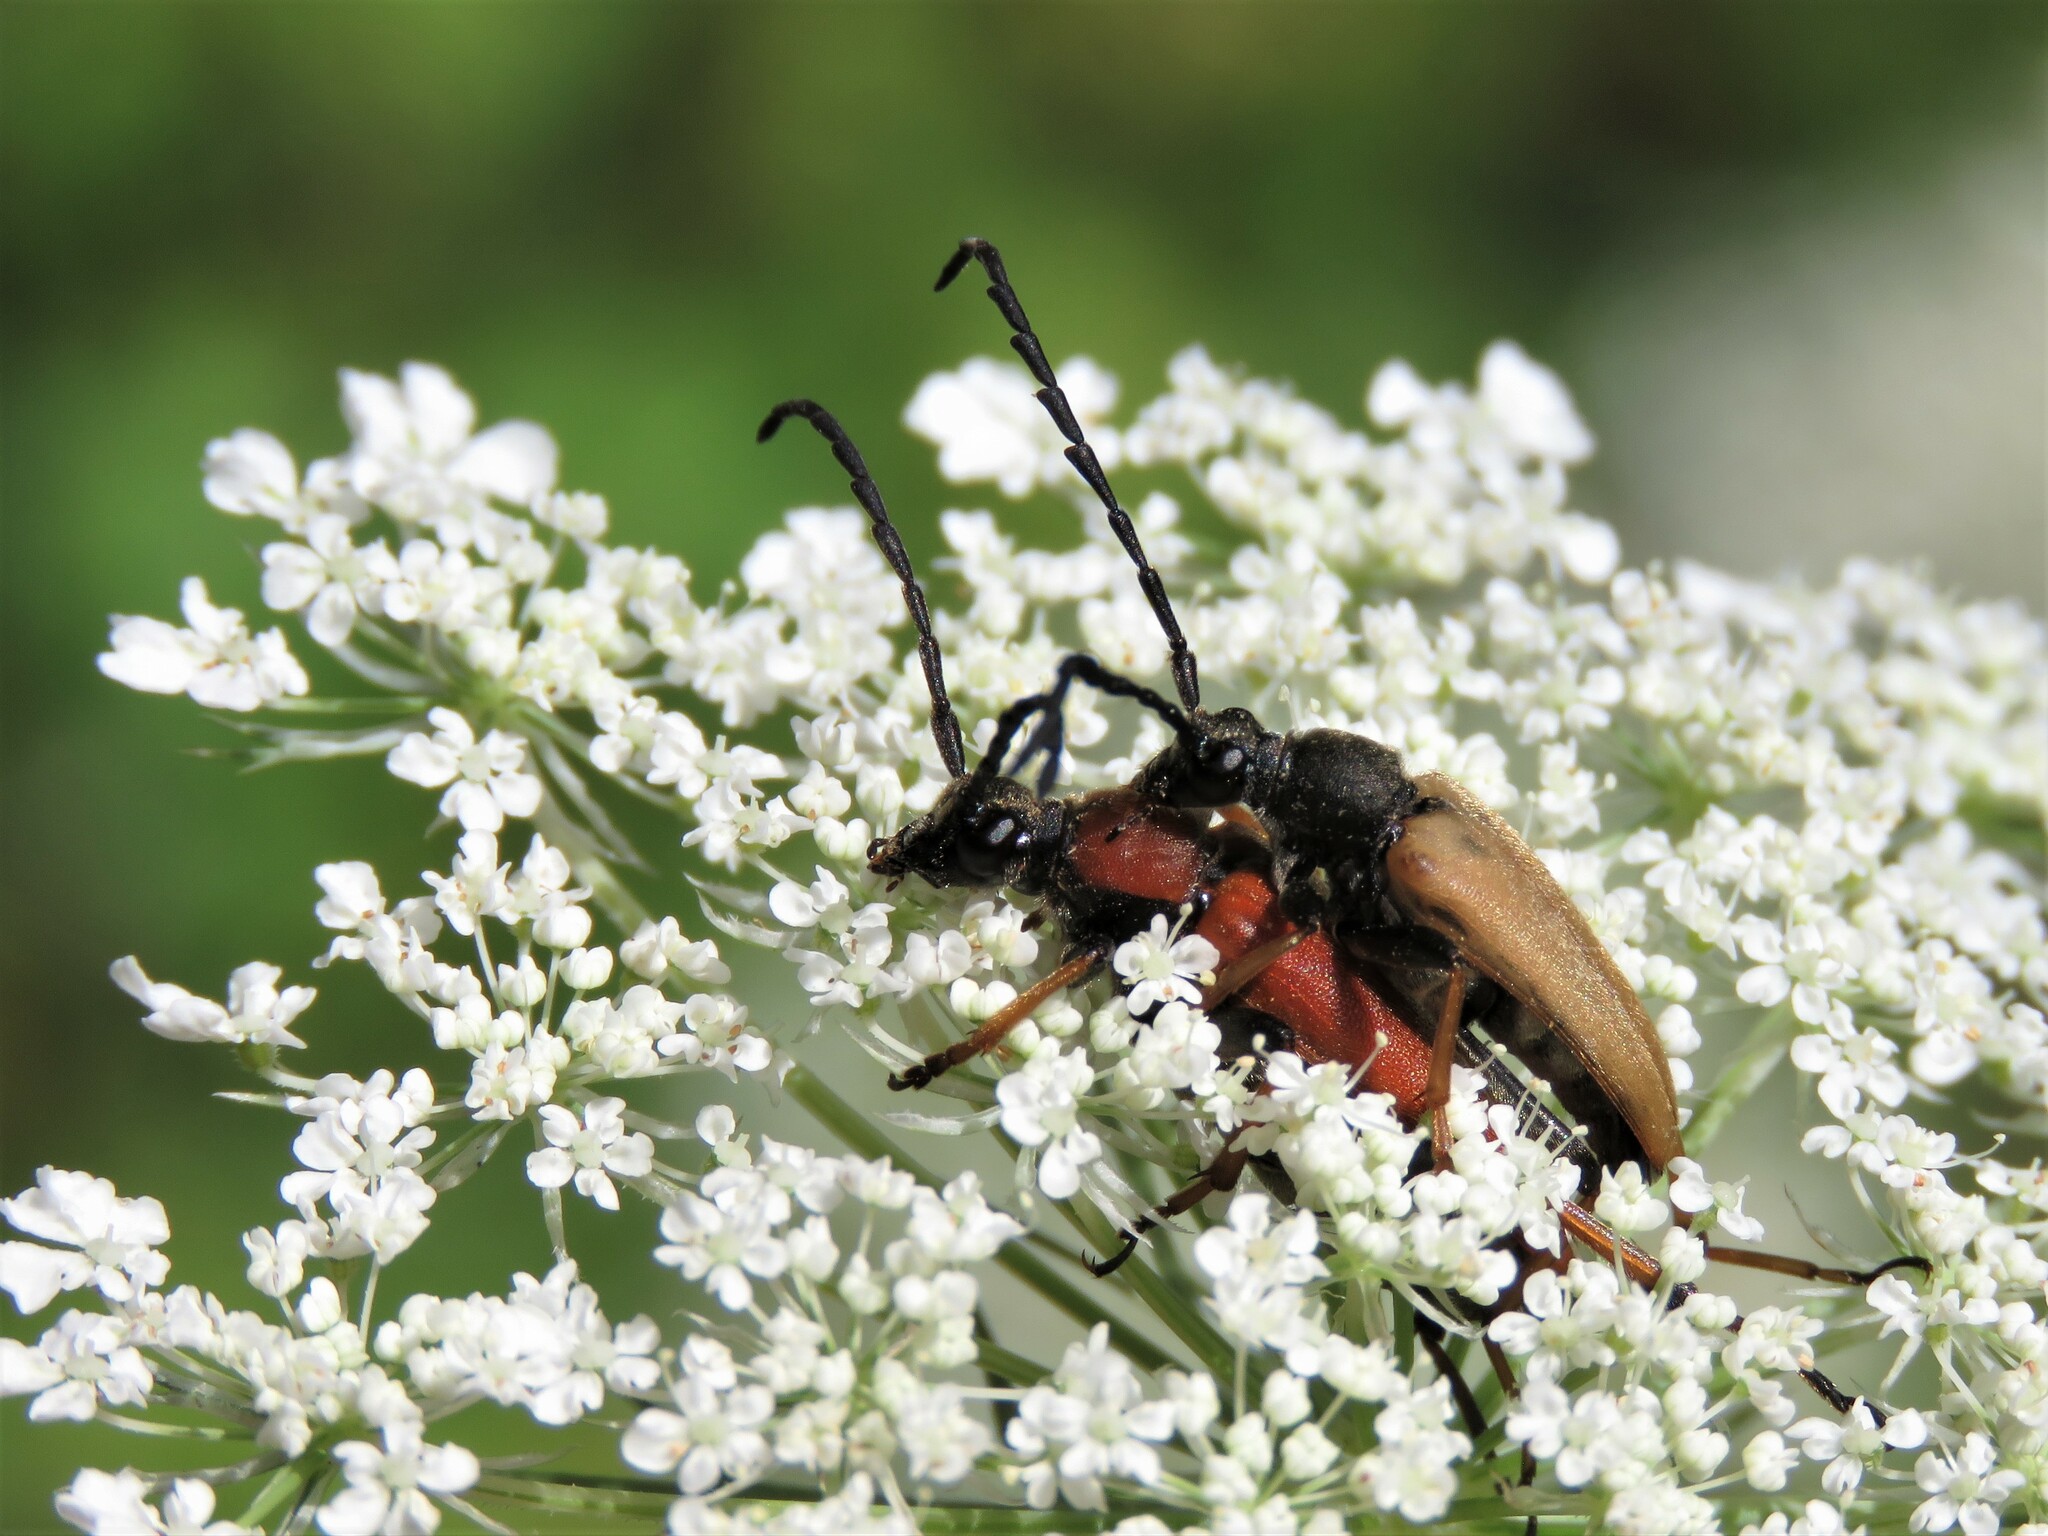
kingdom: Animalia
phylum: Arthropoda
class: Insecta
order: Coleoptera
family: Cerambycidae
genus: Stictoleptura
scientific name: Stictoleptura rubra
